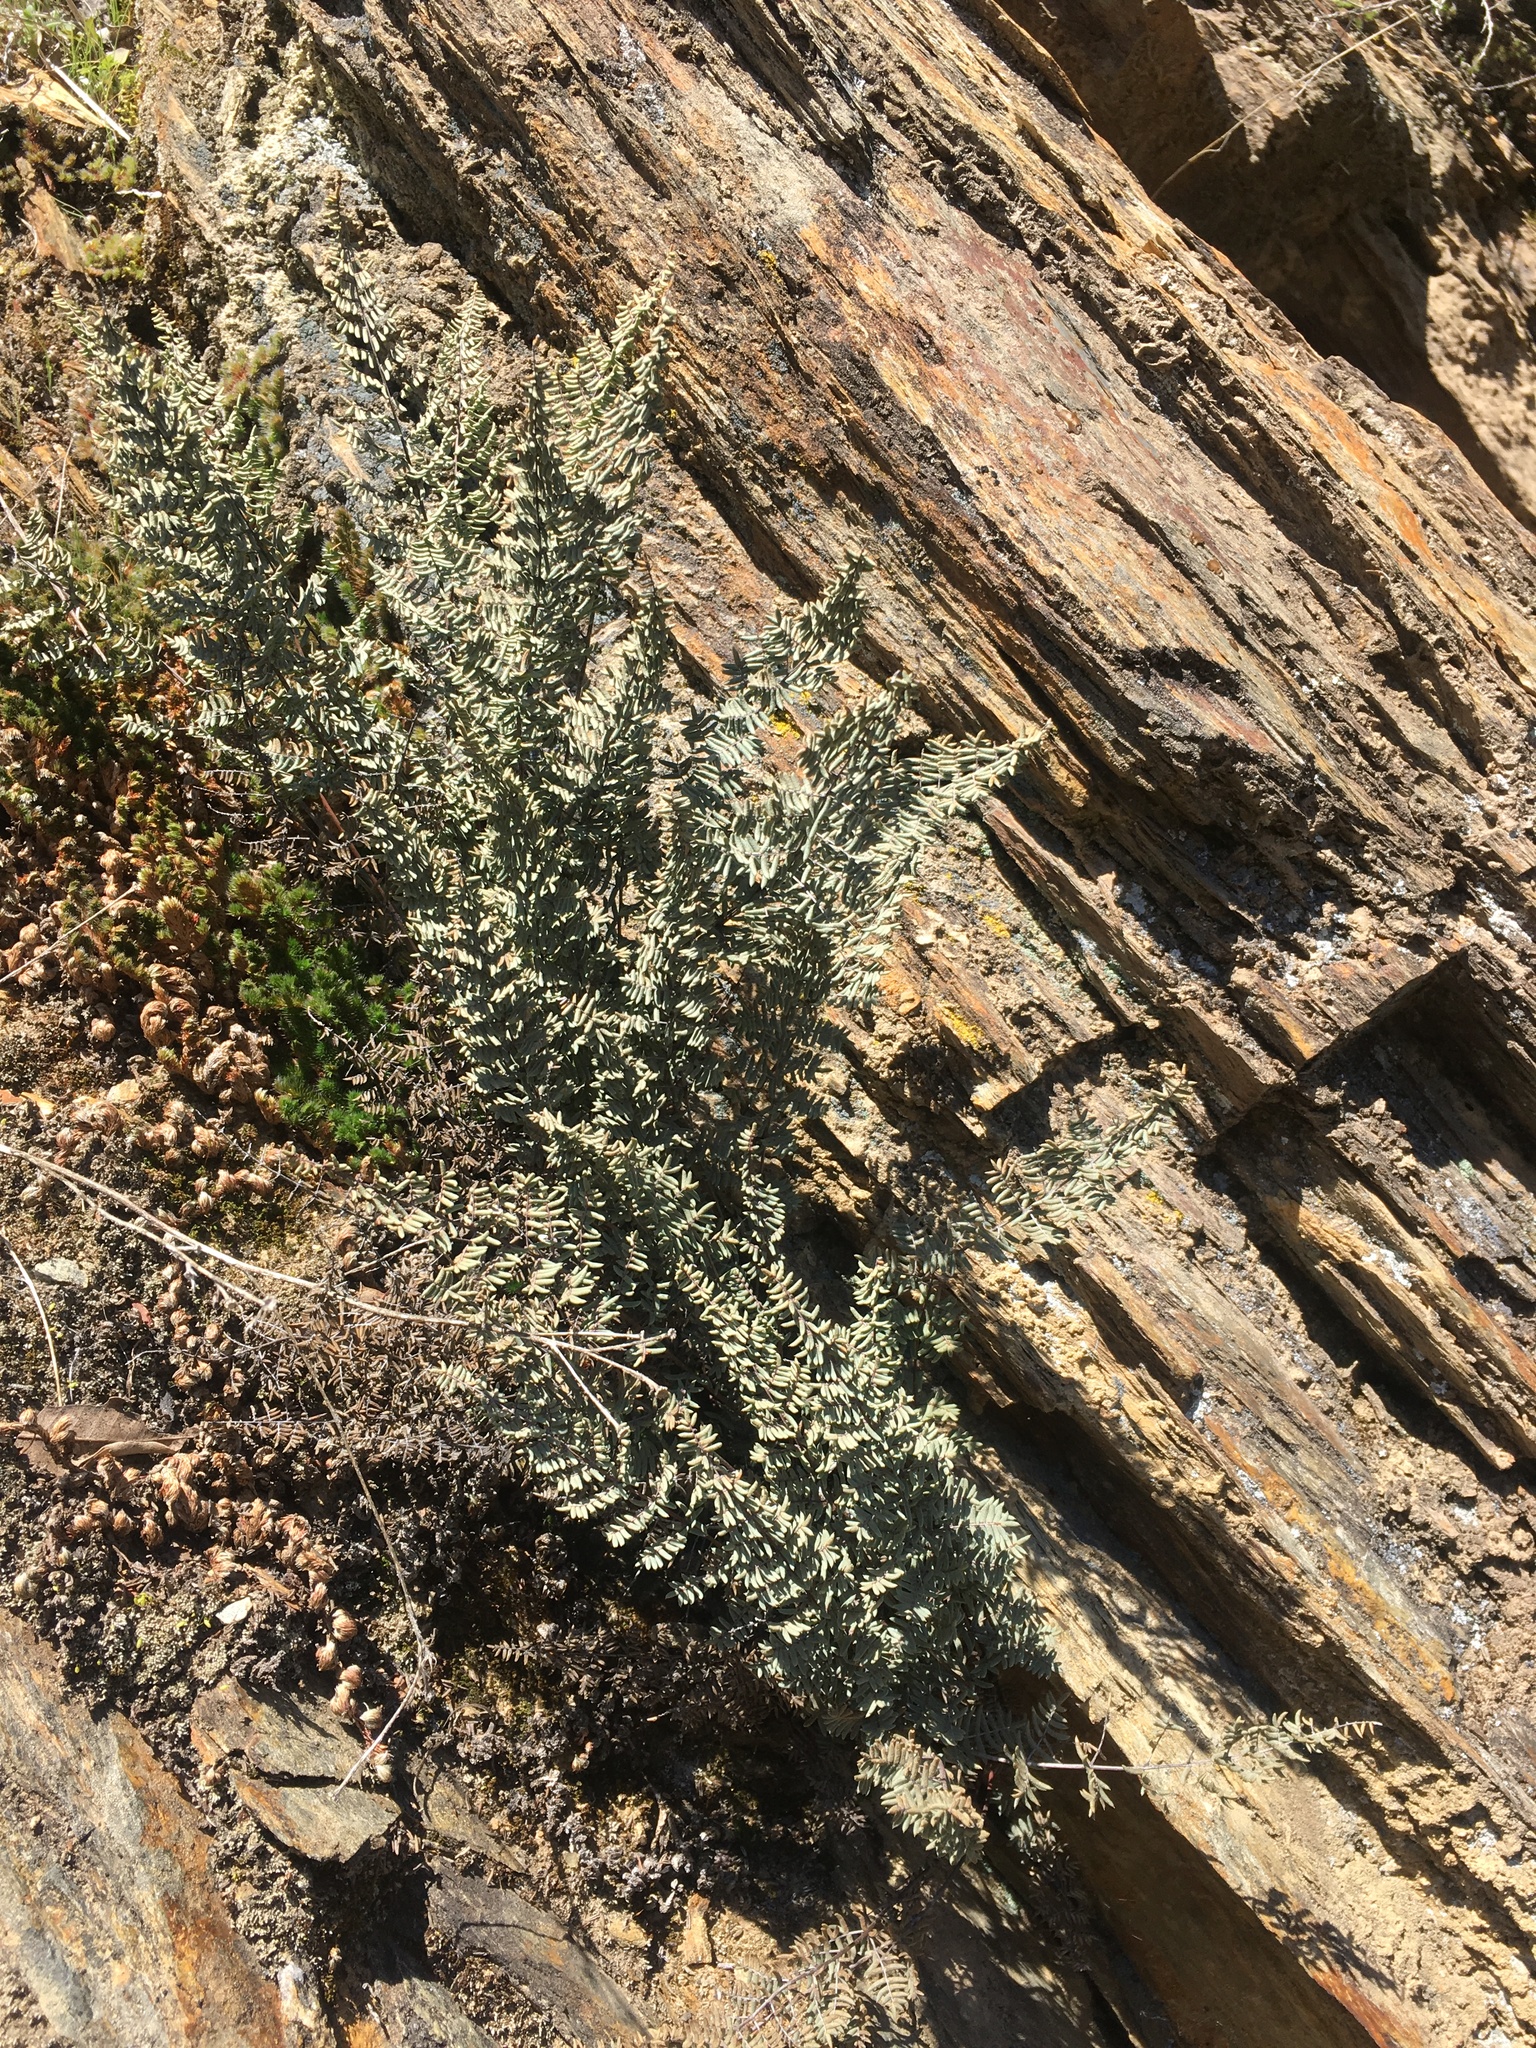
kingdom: Plantae
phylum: Tracheophyta
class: Polypodiopsida
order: Polypodiales
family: Pteridaceae
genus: Pellaea
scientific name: Pellaea mucronata
